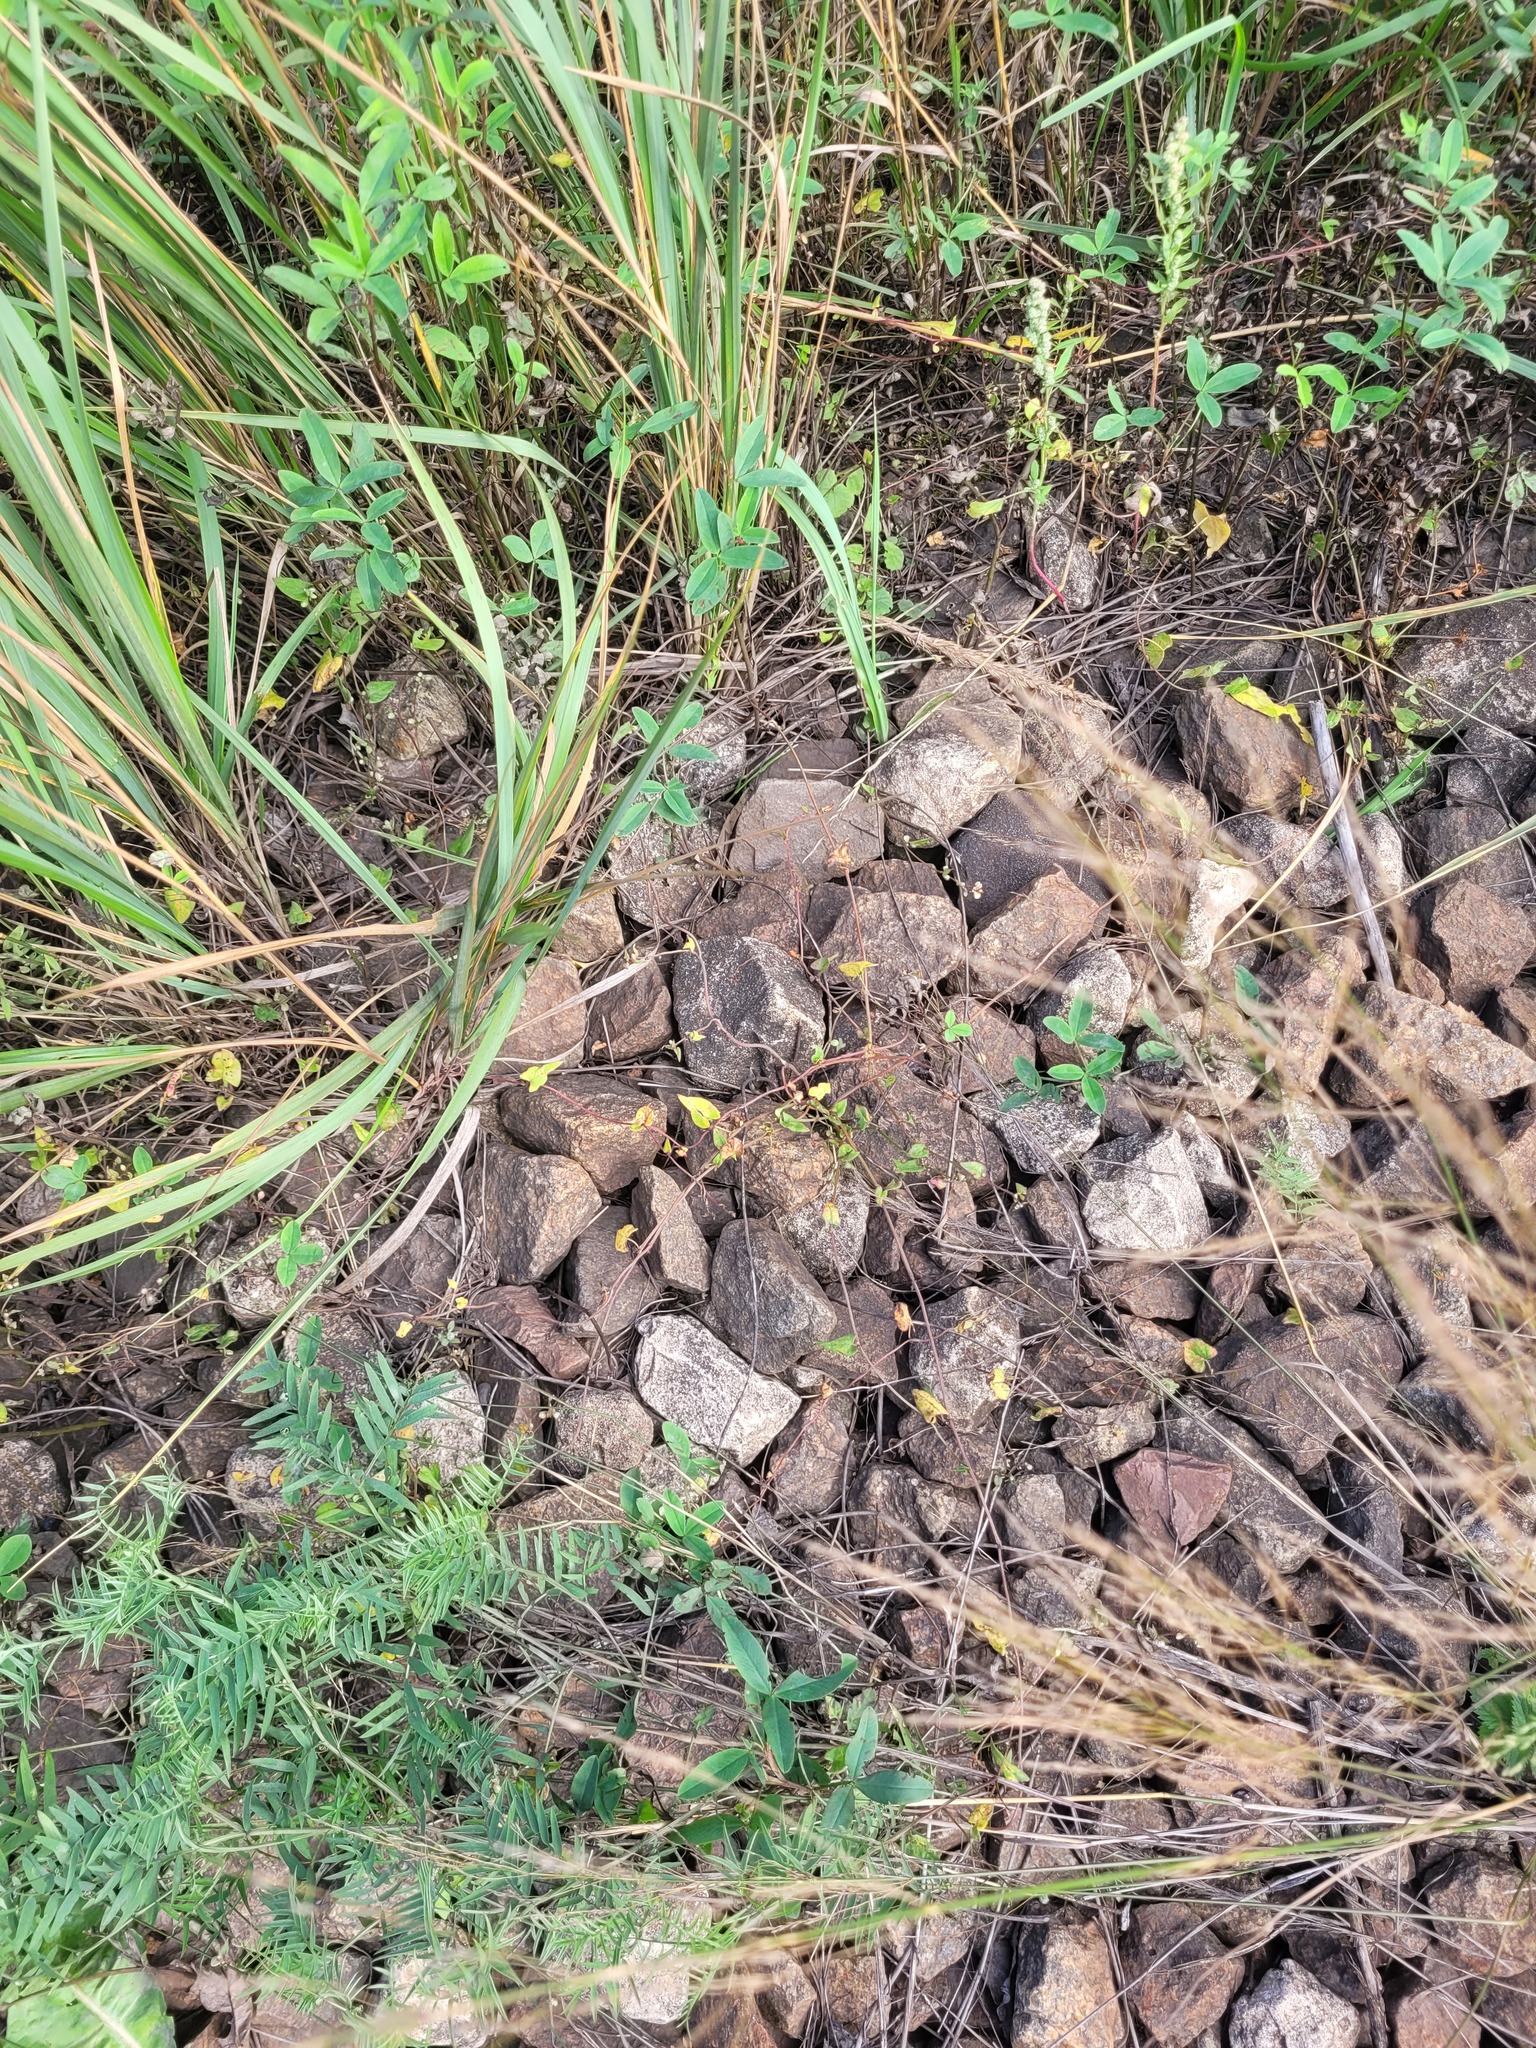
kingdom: Plantae
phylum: Tracheophyta
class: Magnoliopsida
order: Caryophyllales
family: Polygonaceae
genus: Fallopia
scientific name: Fallopia convolvulus
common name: Black bindweed
